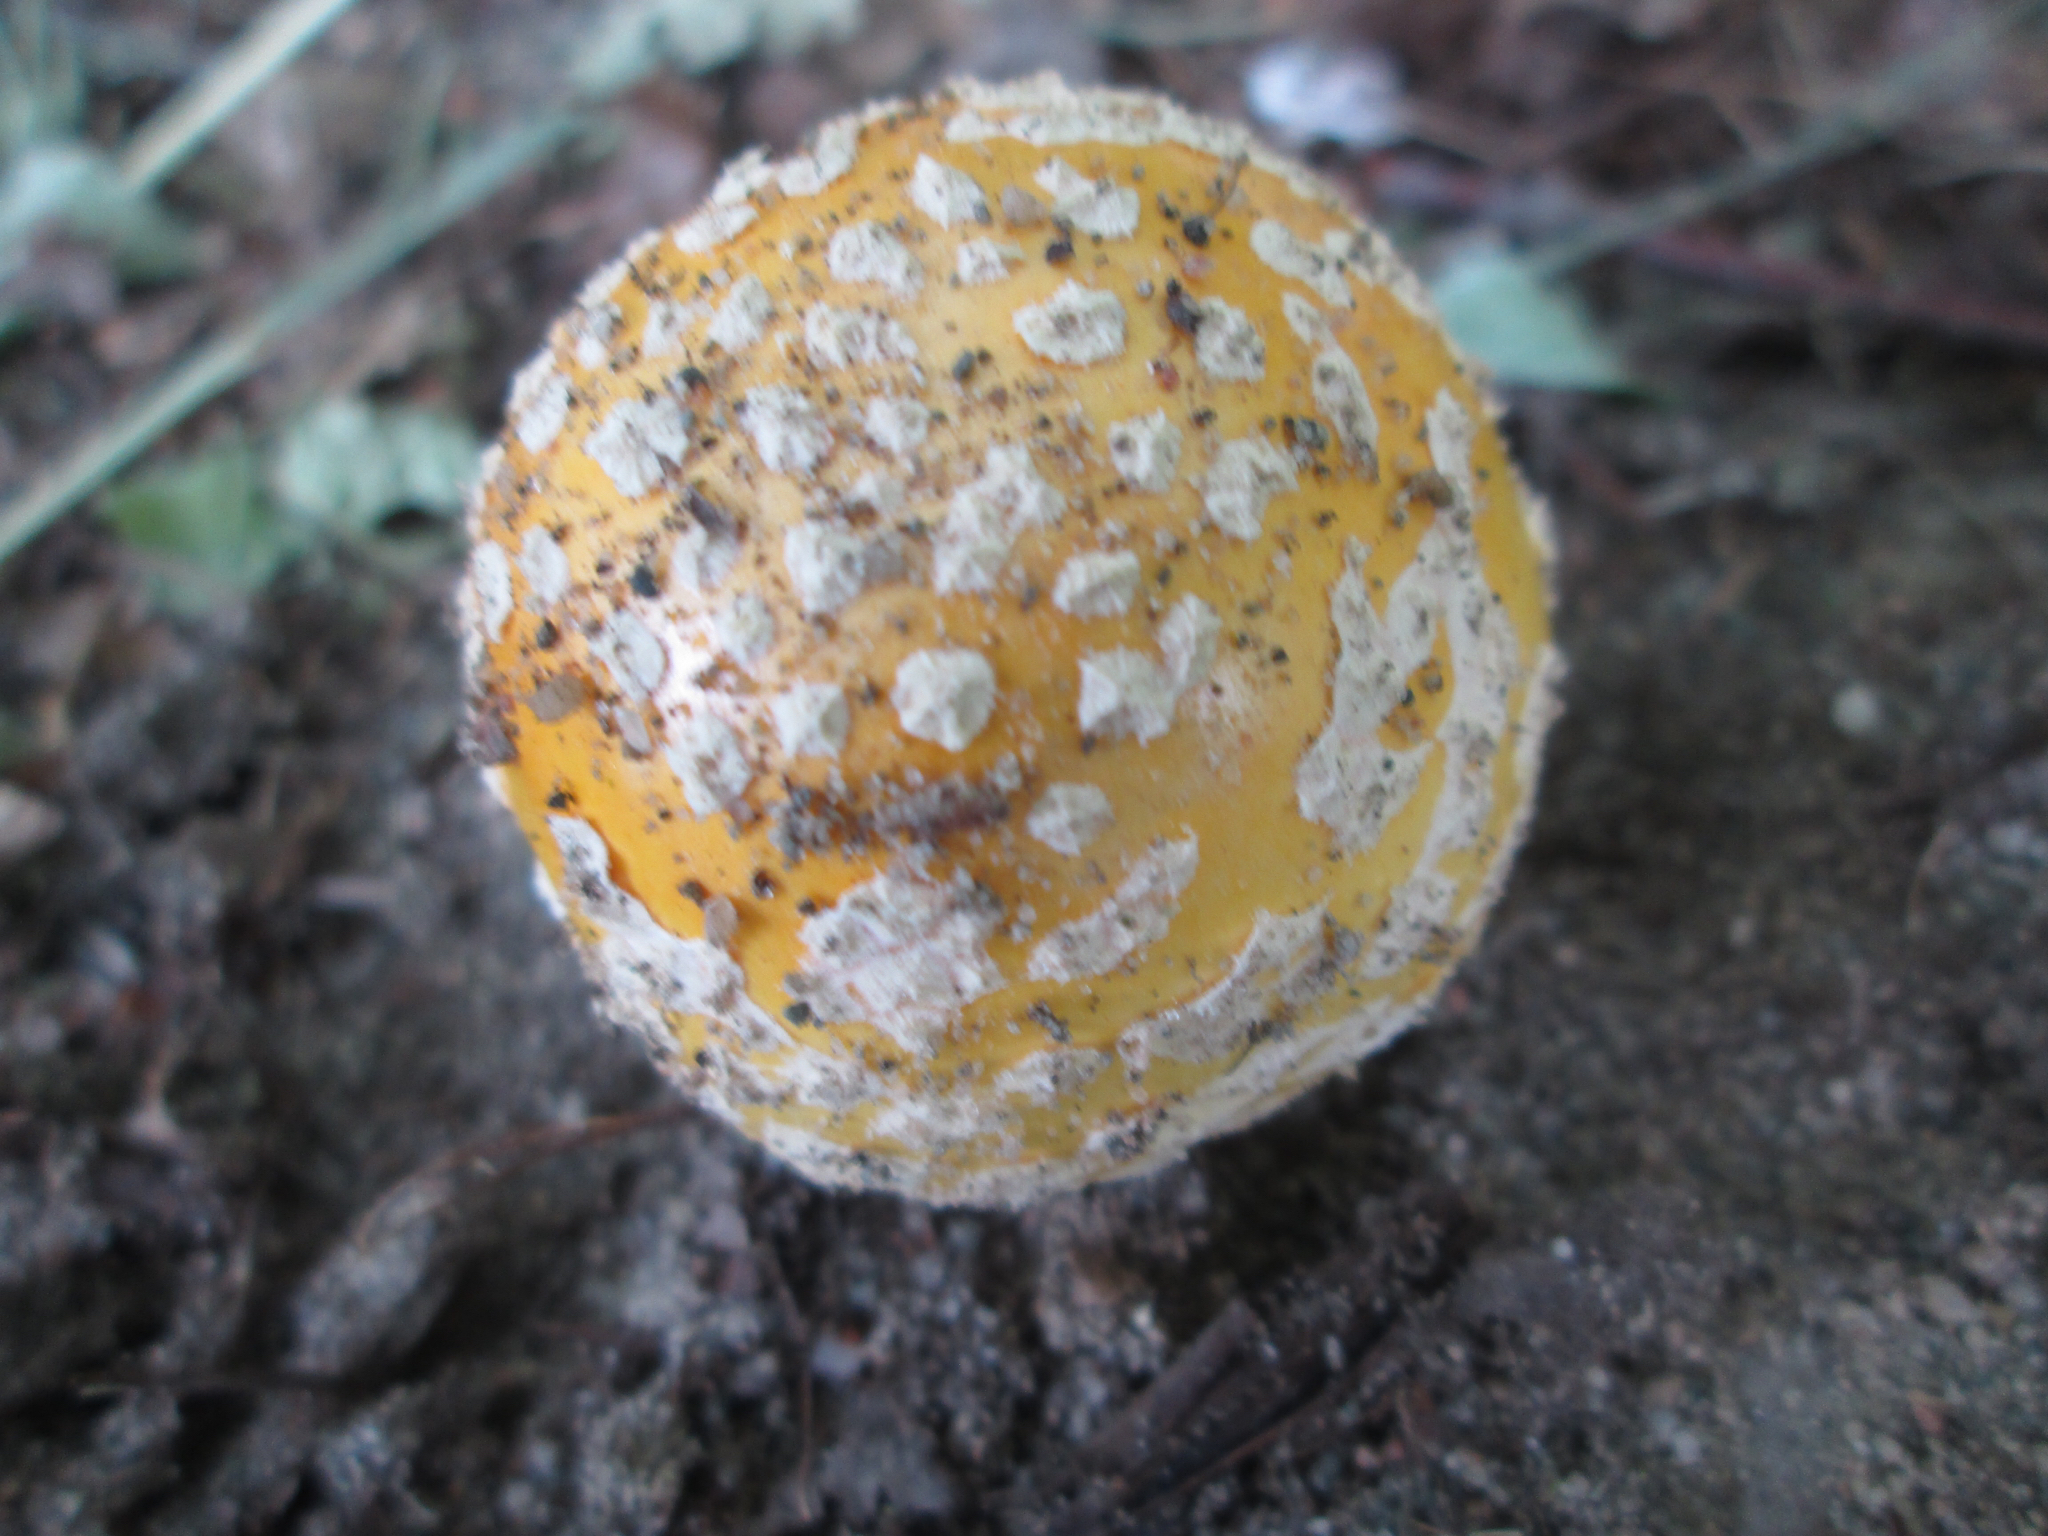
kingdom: Fungi
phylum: Basidiomycota
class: Agaricomycetes
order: Agaricales
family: Amanitaceae
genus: Amanita
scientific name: Amanita muscaria
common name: Fly agaric
